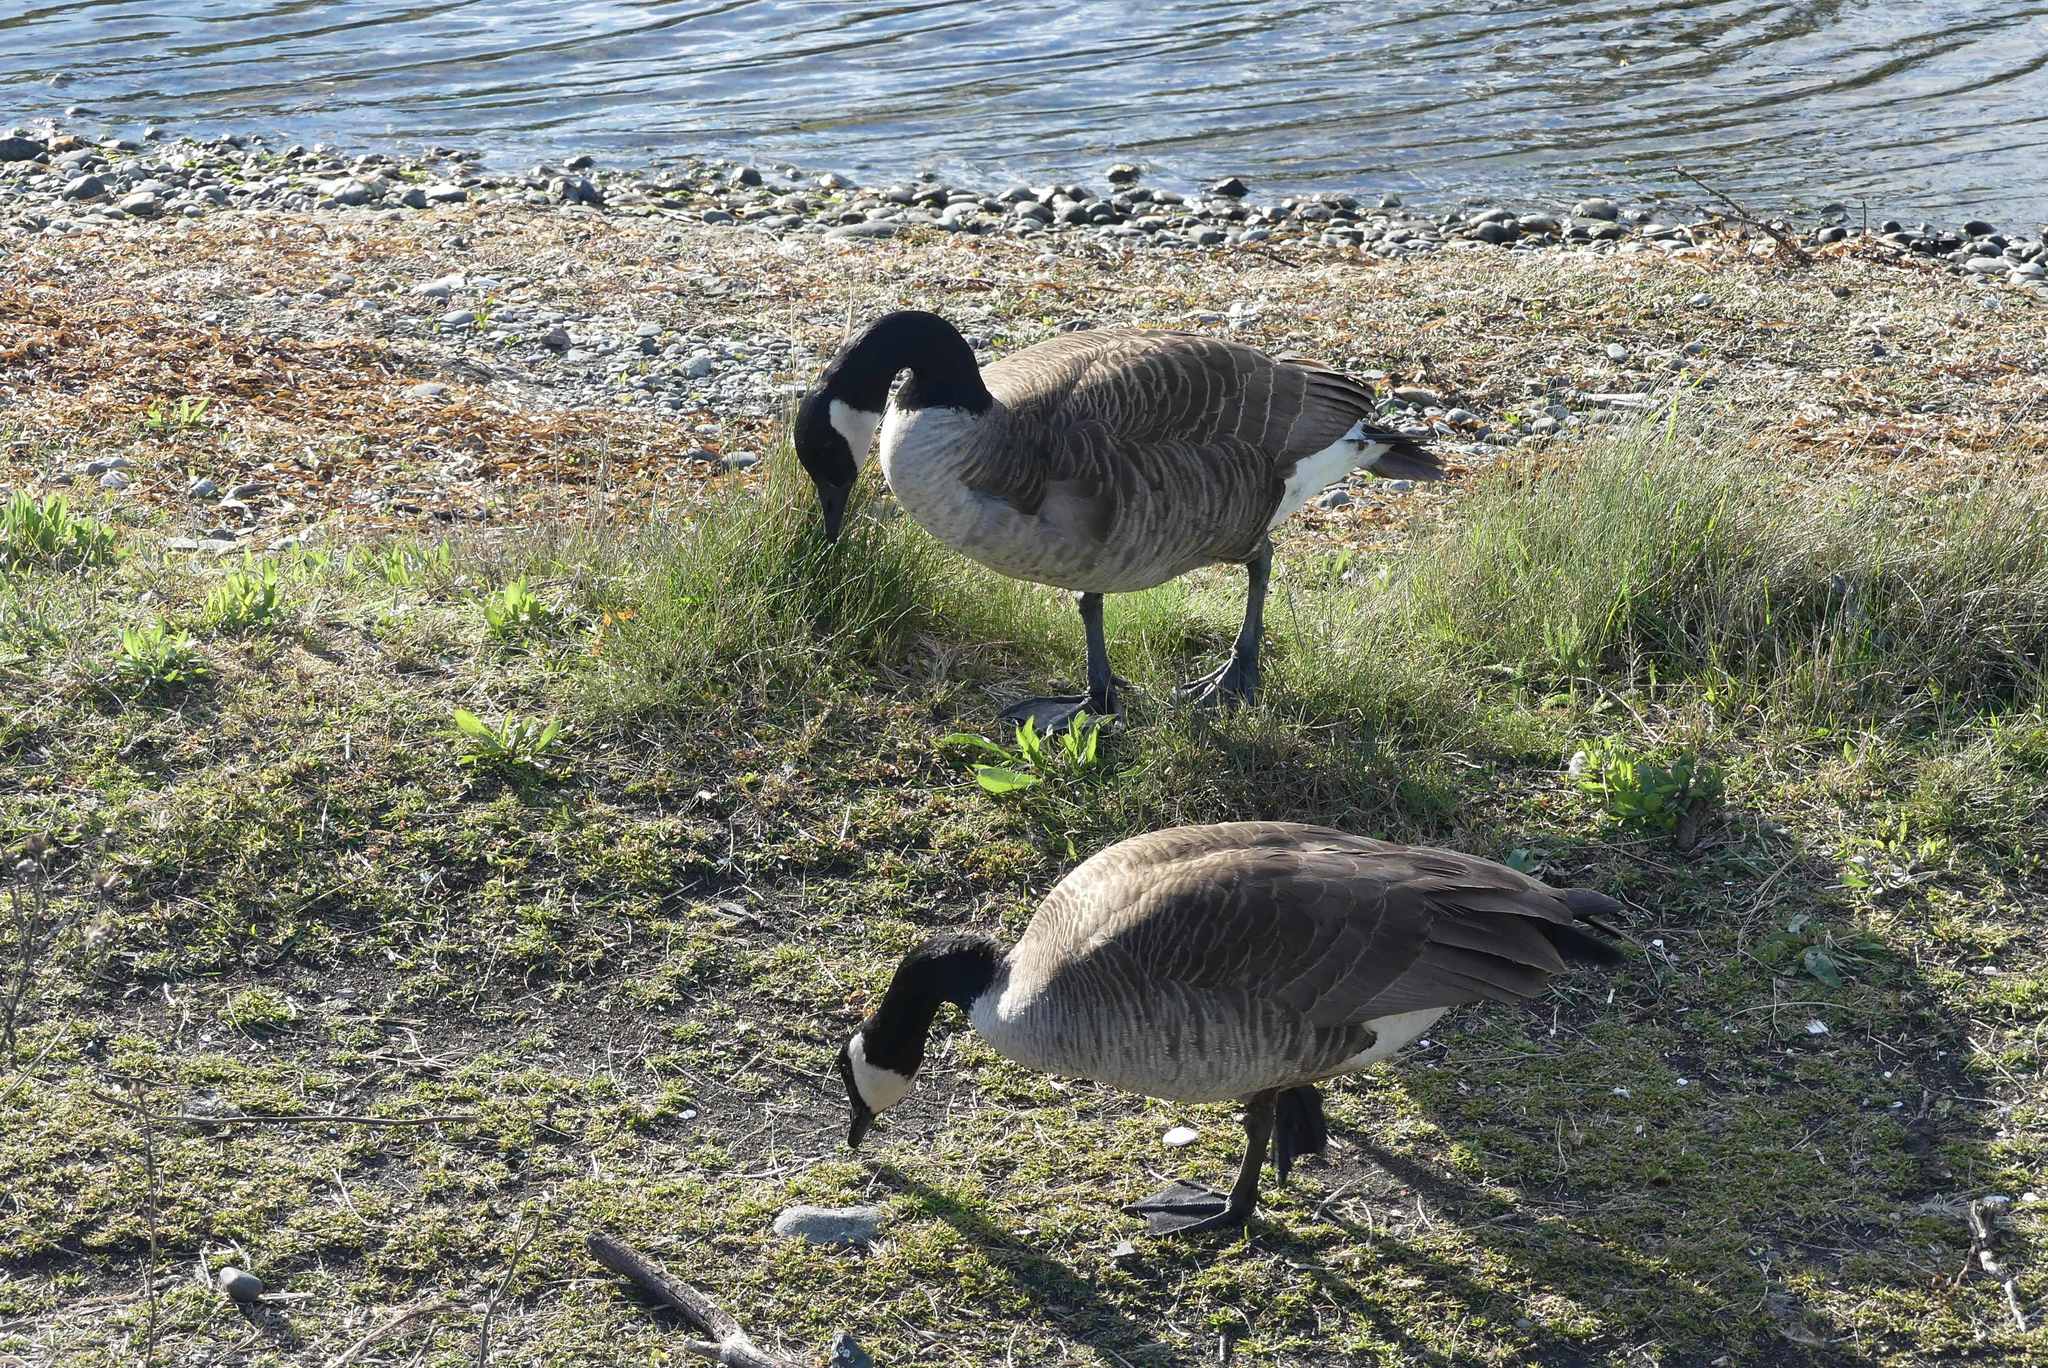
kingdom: Animalia
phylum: Chordata
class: Aves
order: Anseriformes
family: Anatidae
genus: Branta
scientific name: Branta canadensis
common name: Canada goose
